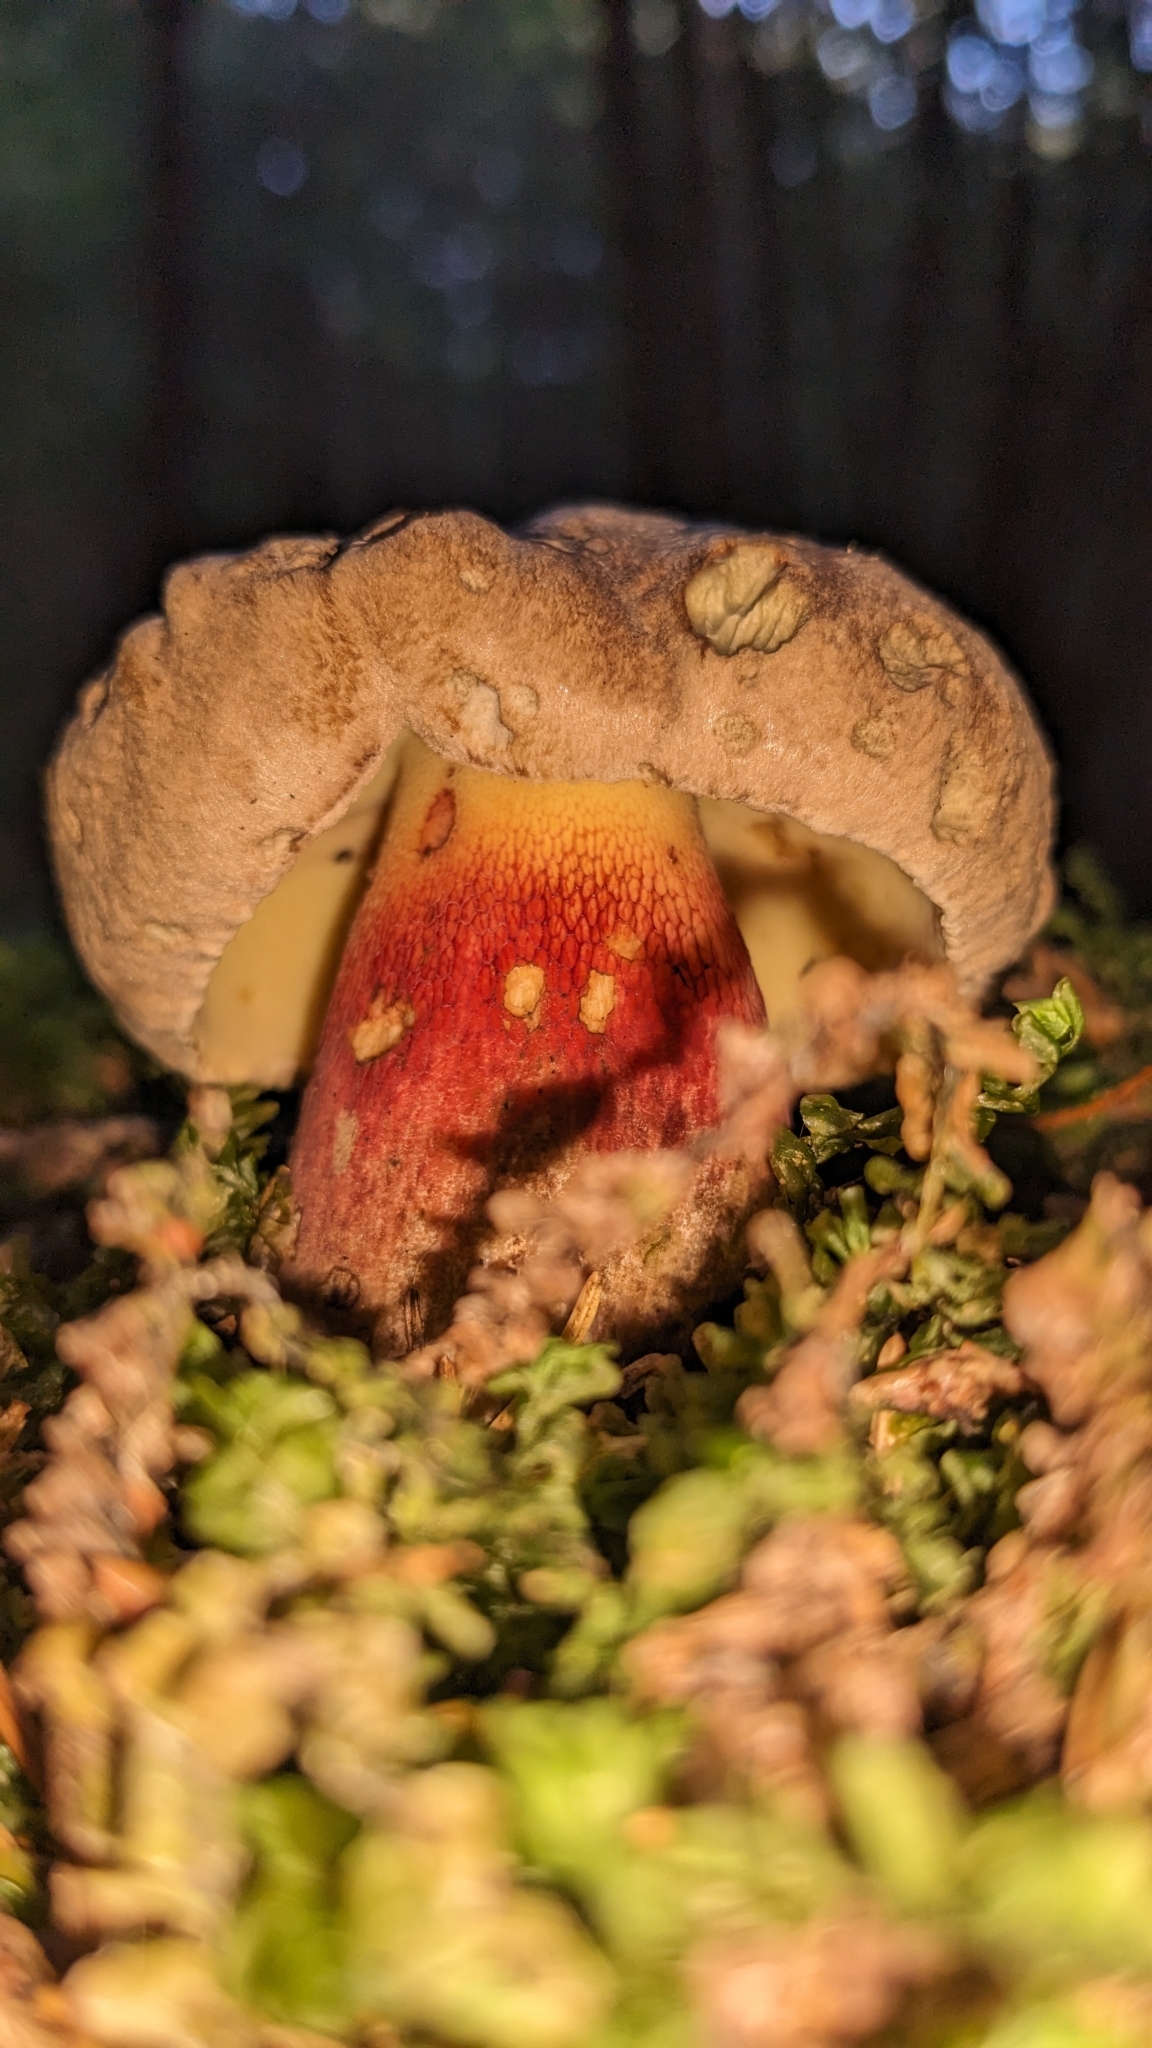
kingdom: Fungi
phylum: Basidiomycota
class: Agaricomycetes
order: Boletales
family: Boletaceae
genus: Caloboletus
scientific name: Caloboletus calopus
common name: Bitter beech bolete
